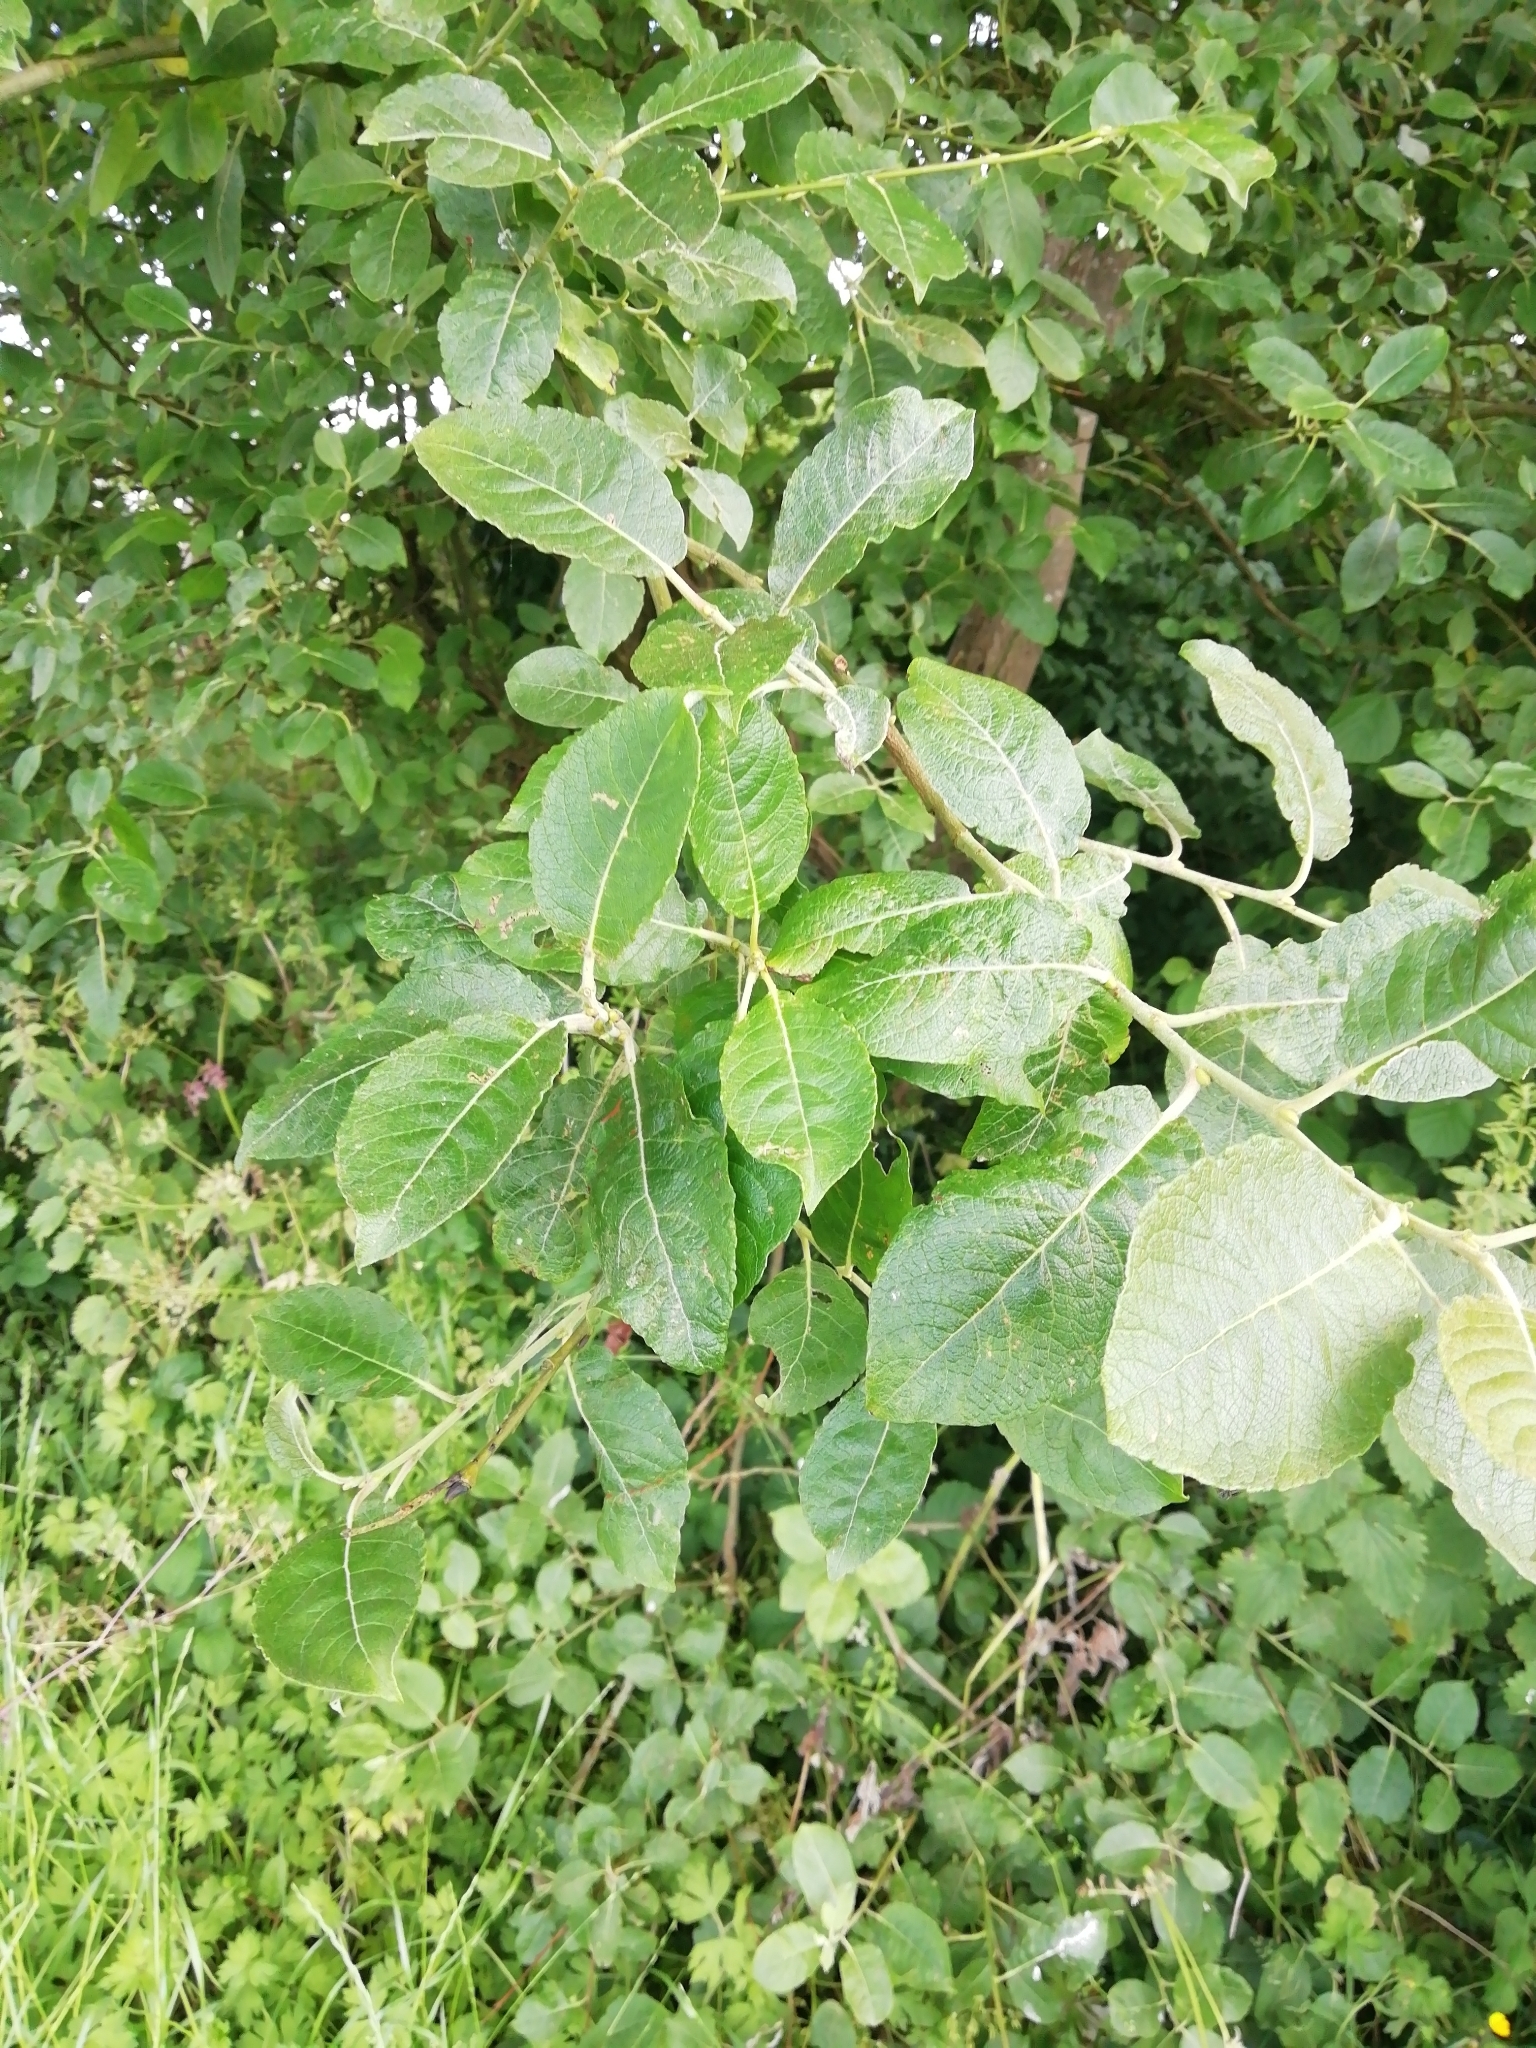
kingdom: Plantae
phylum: Tracheophyta
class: Magnoliopsida
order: Malpighiales
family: Salicaceae
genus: Salix
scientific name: Salix caprea
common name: Goat willow
